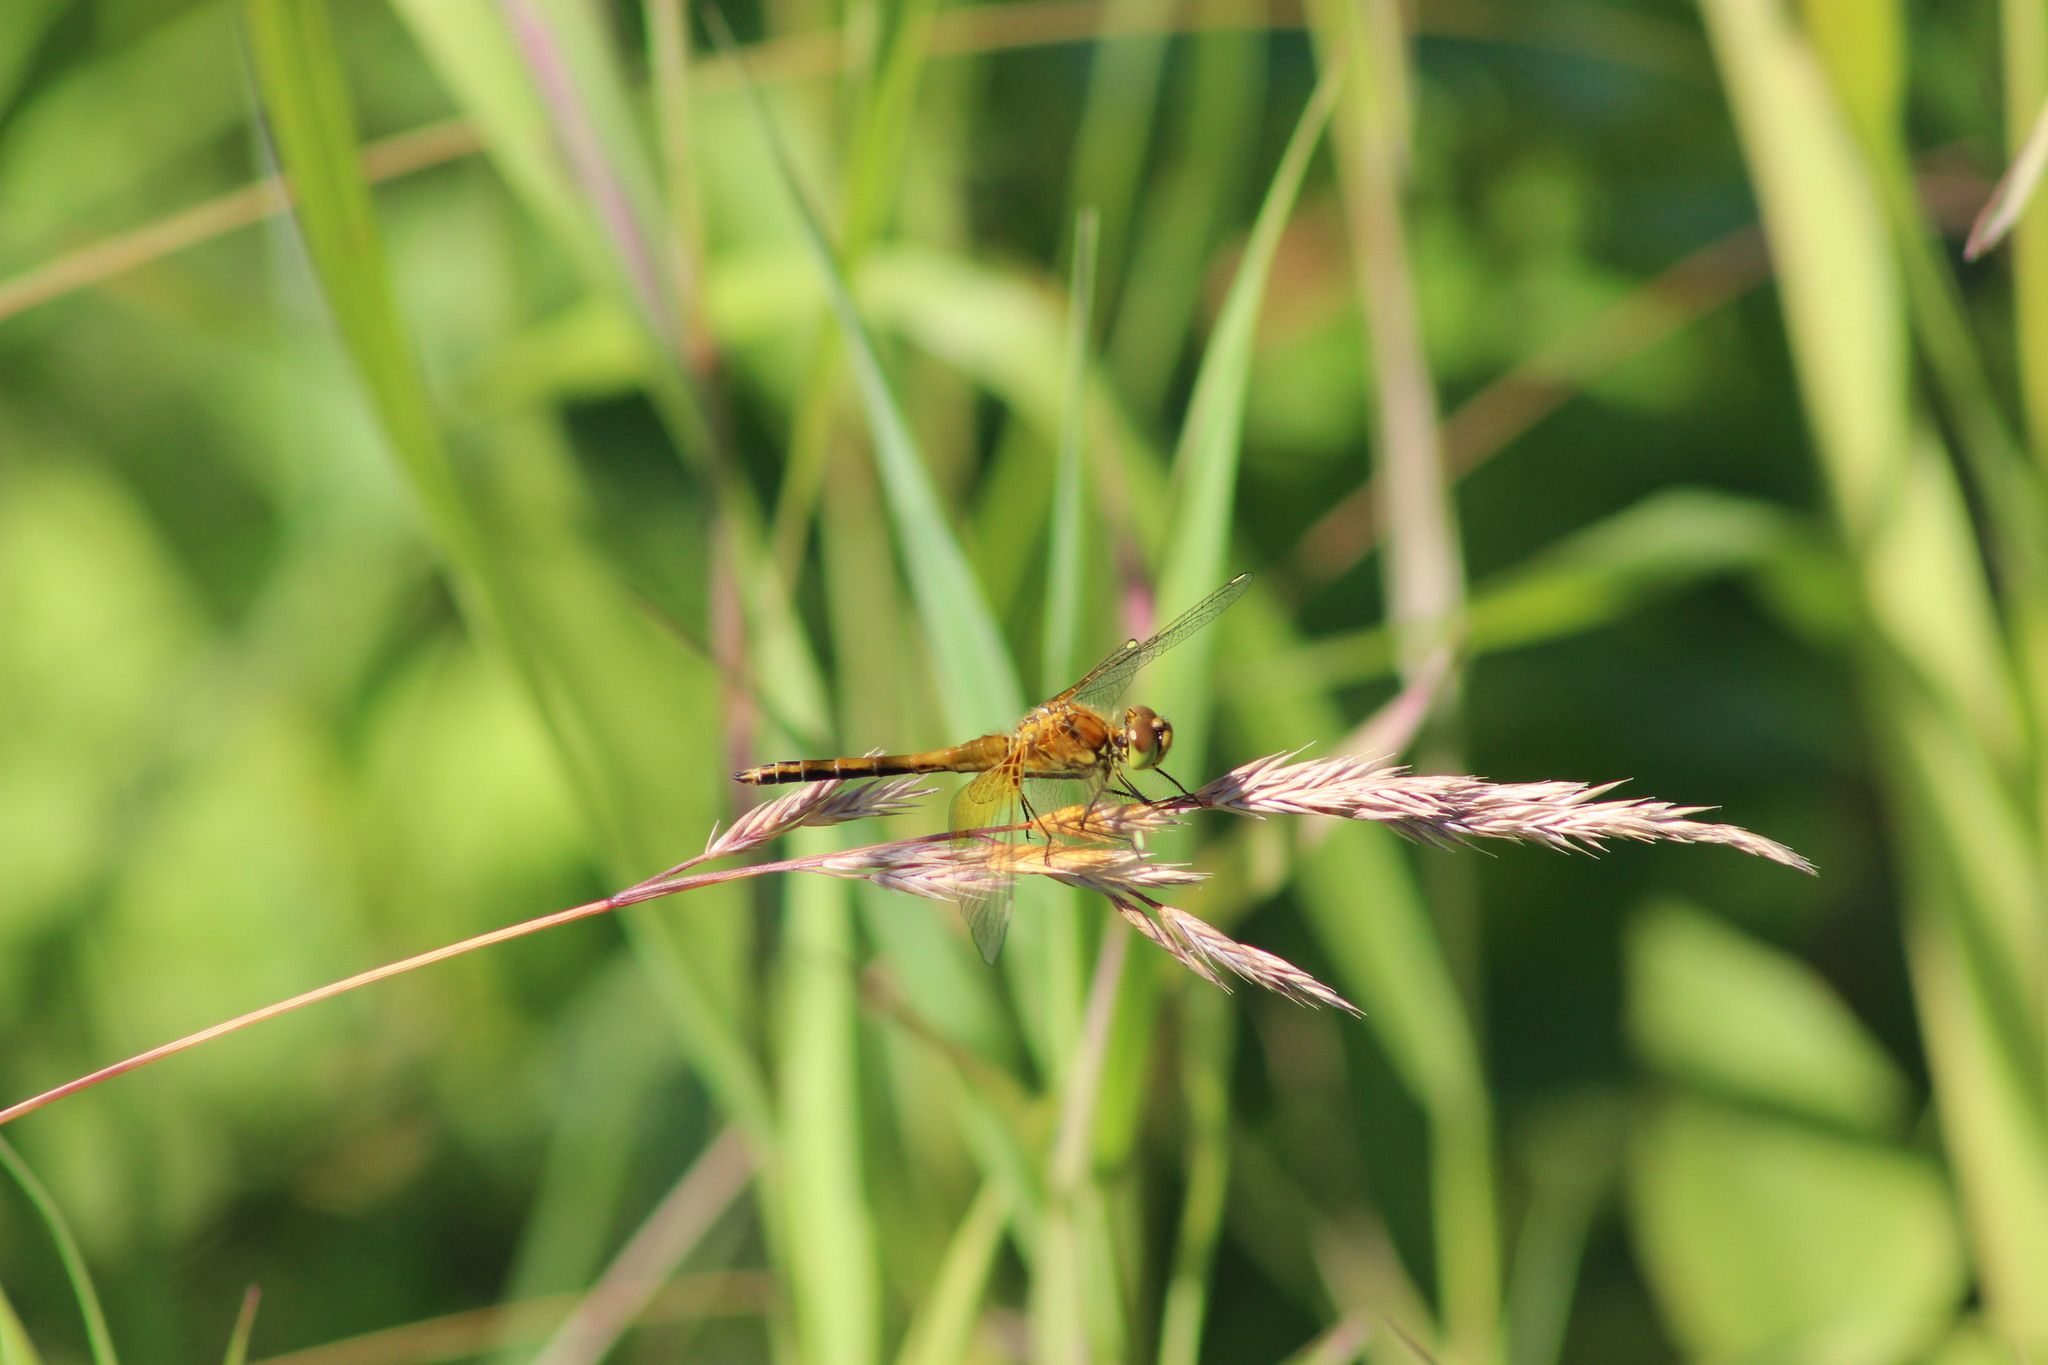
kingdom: Animalia
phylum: Arthropoda
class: Insecta
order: Odonata
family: Libellulidae
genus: Sympetrum
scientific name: Sympetrum flaveolum
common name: Yellow-winged darter
